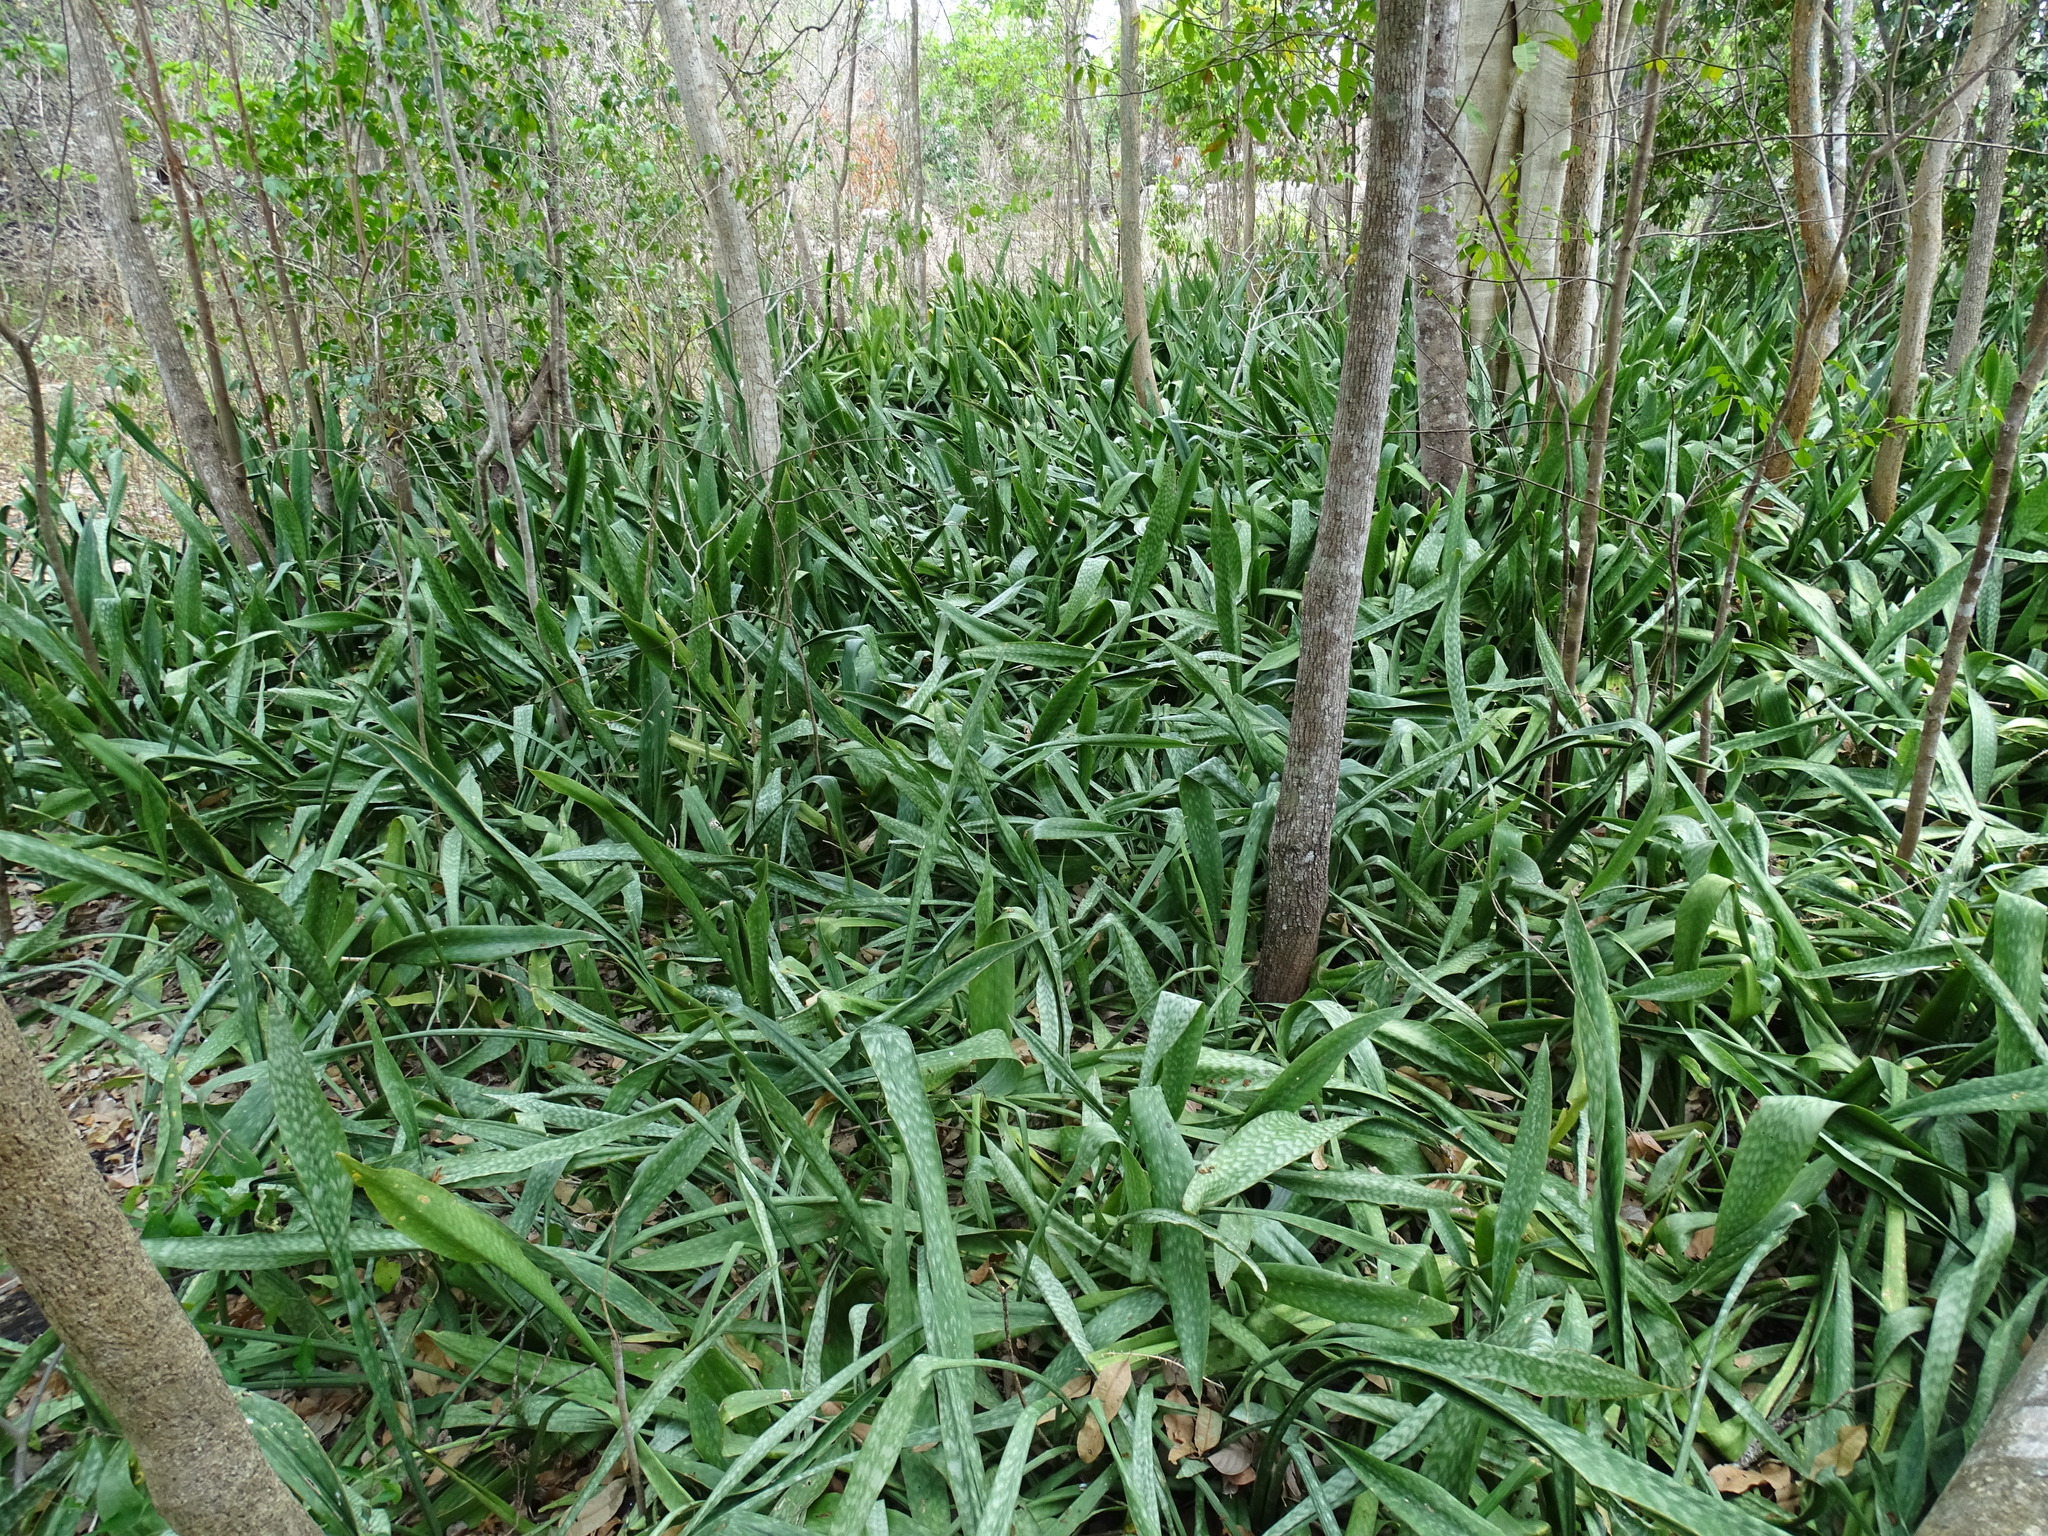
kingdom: Plantae
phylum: Tracheophyta
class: Liliopsida
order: Asparagales
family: Asparagaceae
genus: Dracaena
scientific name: Dracaena hyacinthoides
